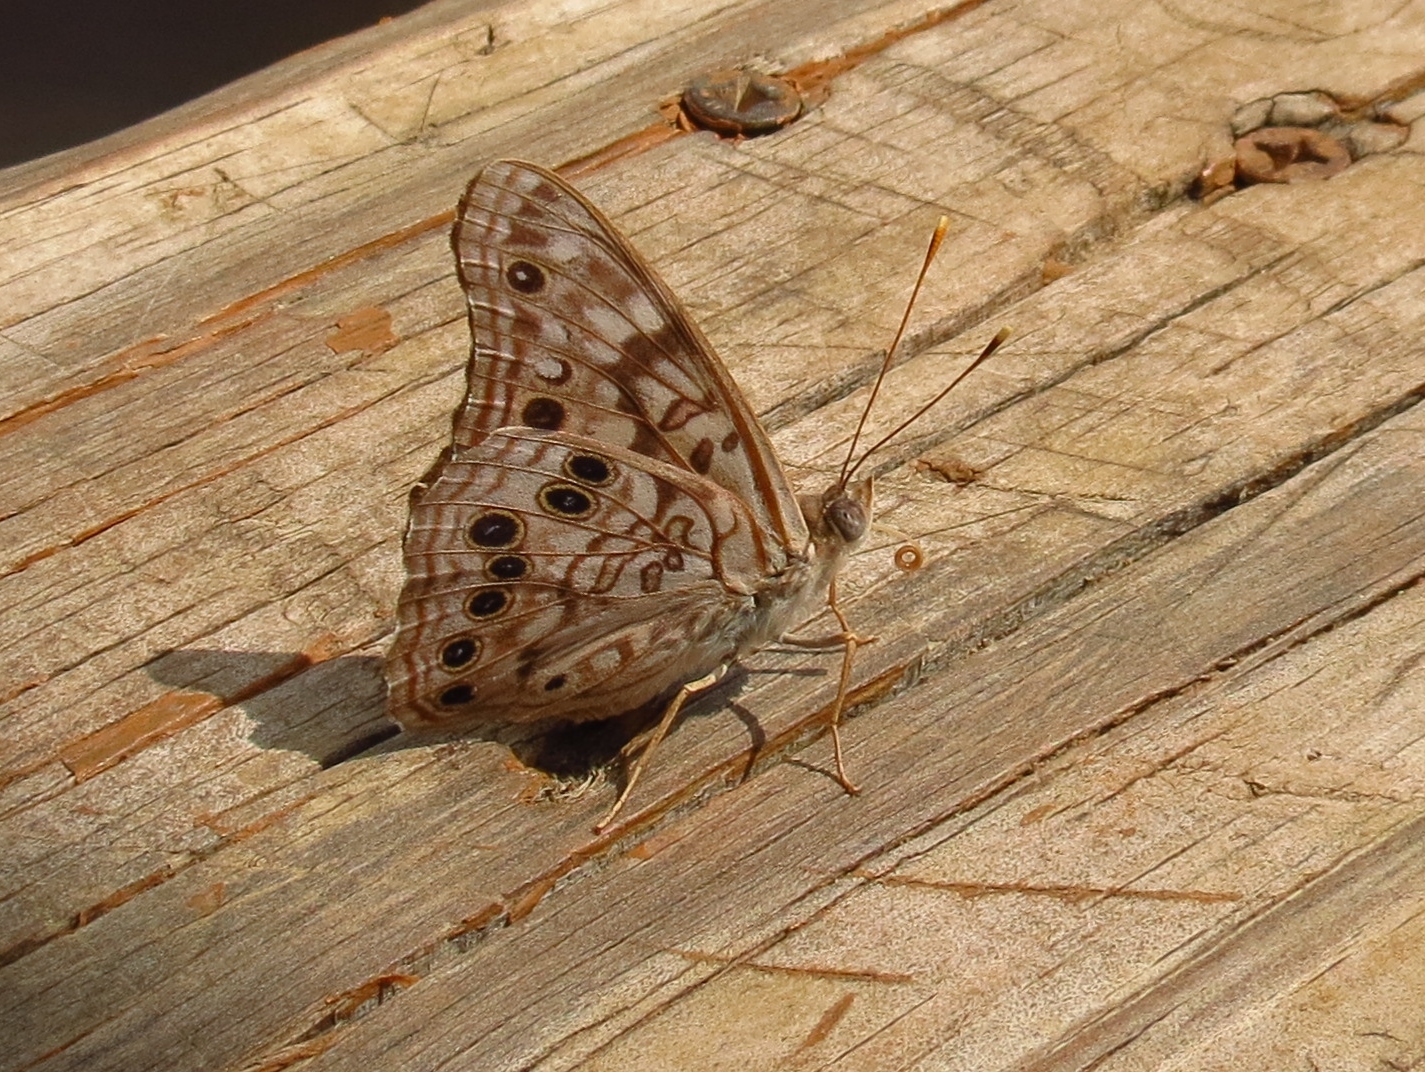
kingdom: Animalia
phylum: Arthropoda
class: Insecta
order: Lepidoptera
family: Nymphalidae
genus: Asterocampa
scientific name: Asterocampa celtis
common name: Hackberry emperor
